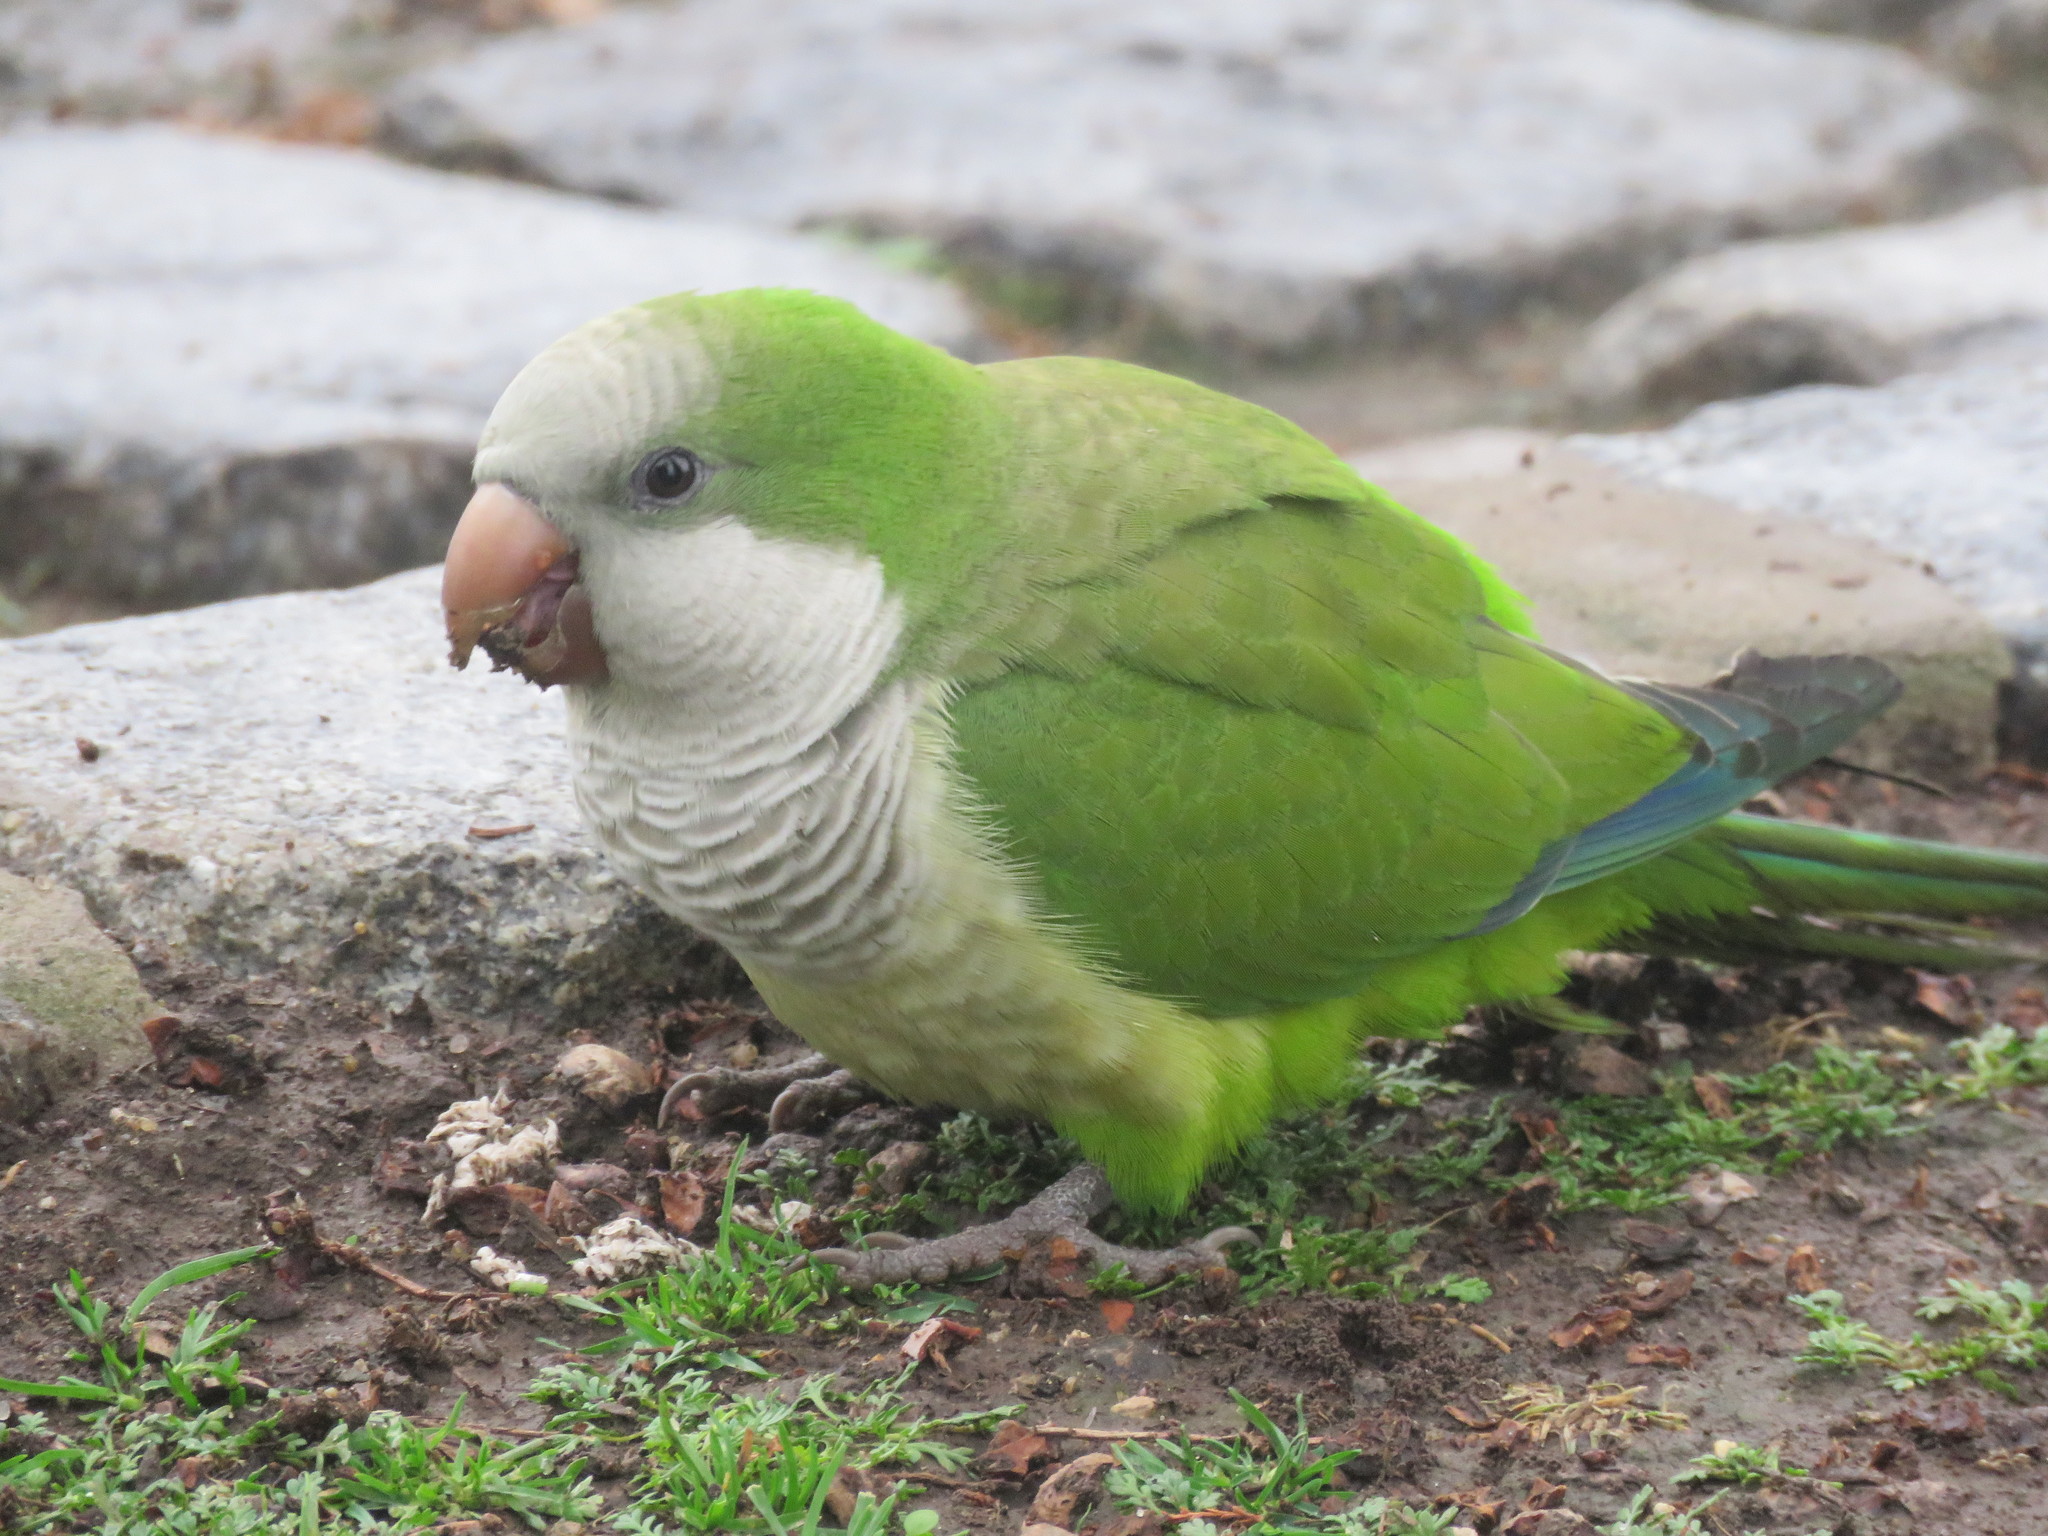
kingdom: Animalia
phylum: Chordata
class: Aves
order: Psittaciformes
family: Psittacidae
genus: Myiopsitta
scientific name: Myiopsitta monachus
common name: Monk parakeet
